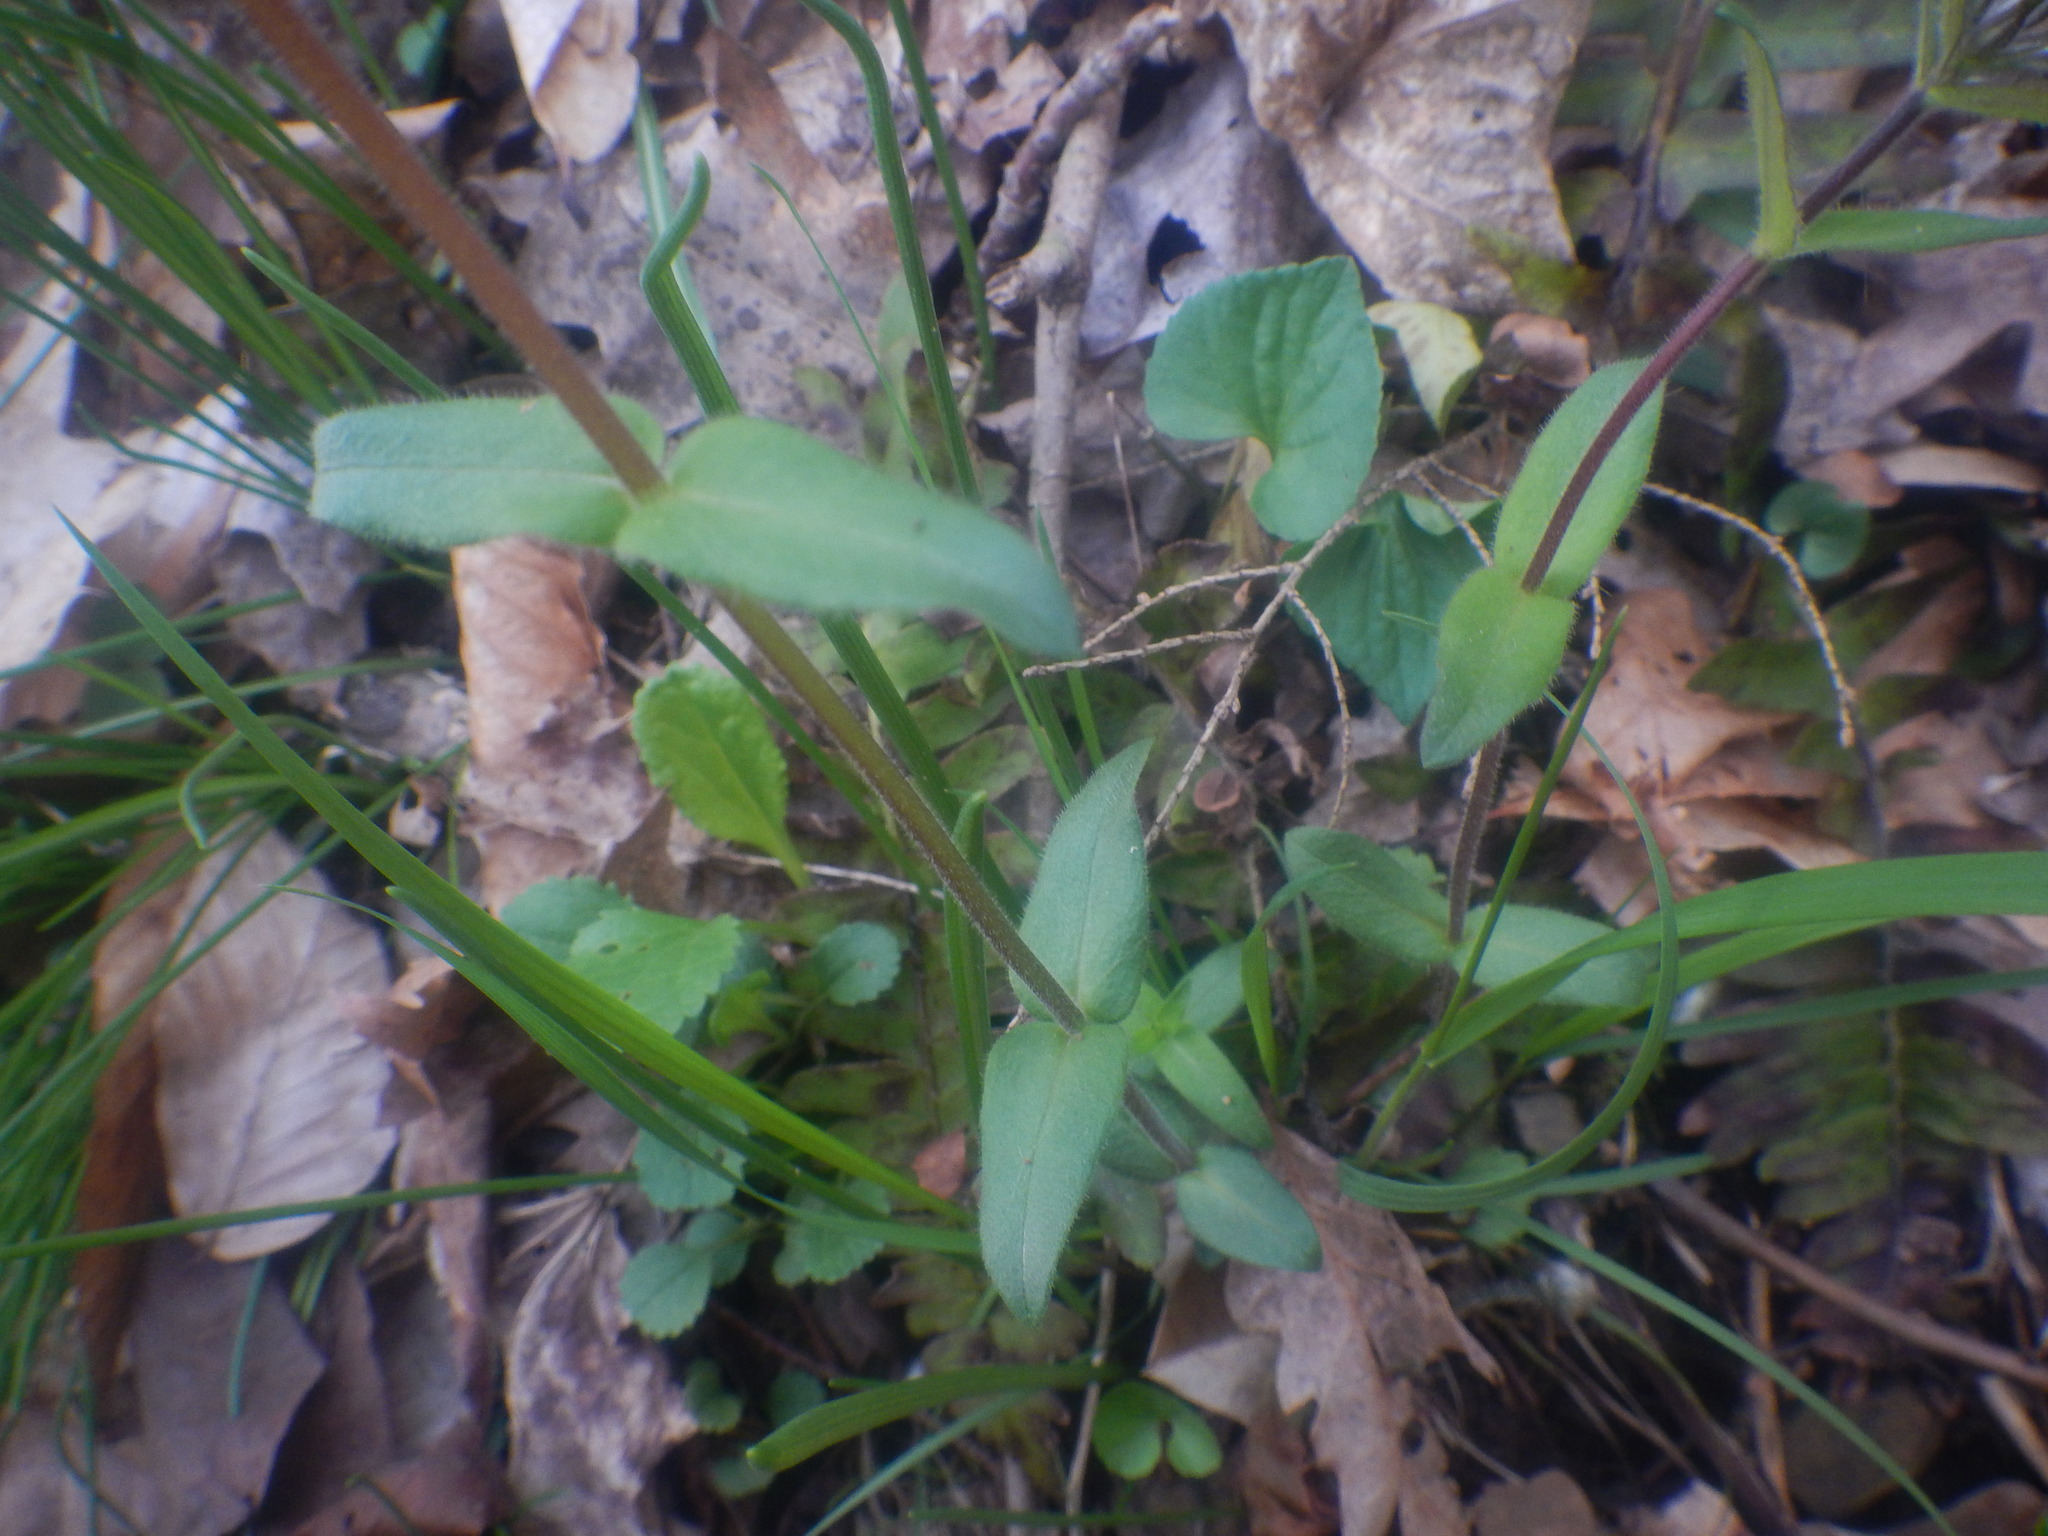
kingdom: Plantae
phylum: Tracheophyta
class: Magnoliopsida
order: Ericales
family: Polemoniaceae
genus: Phlox
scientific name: Phlox divaricata
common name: Blue phlox
